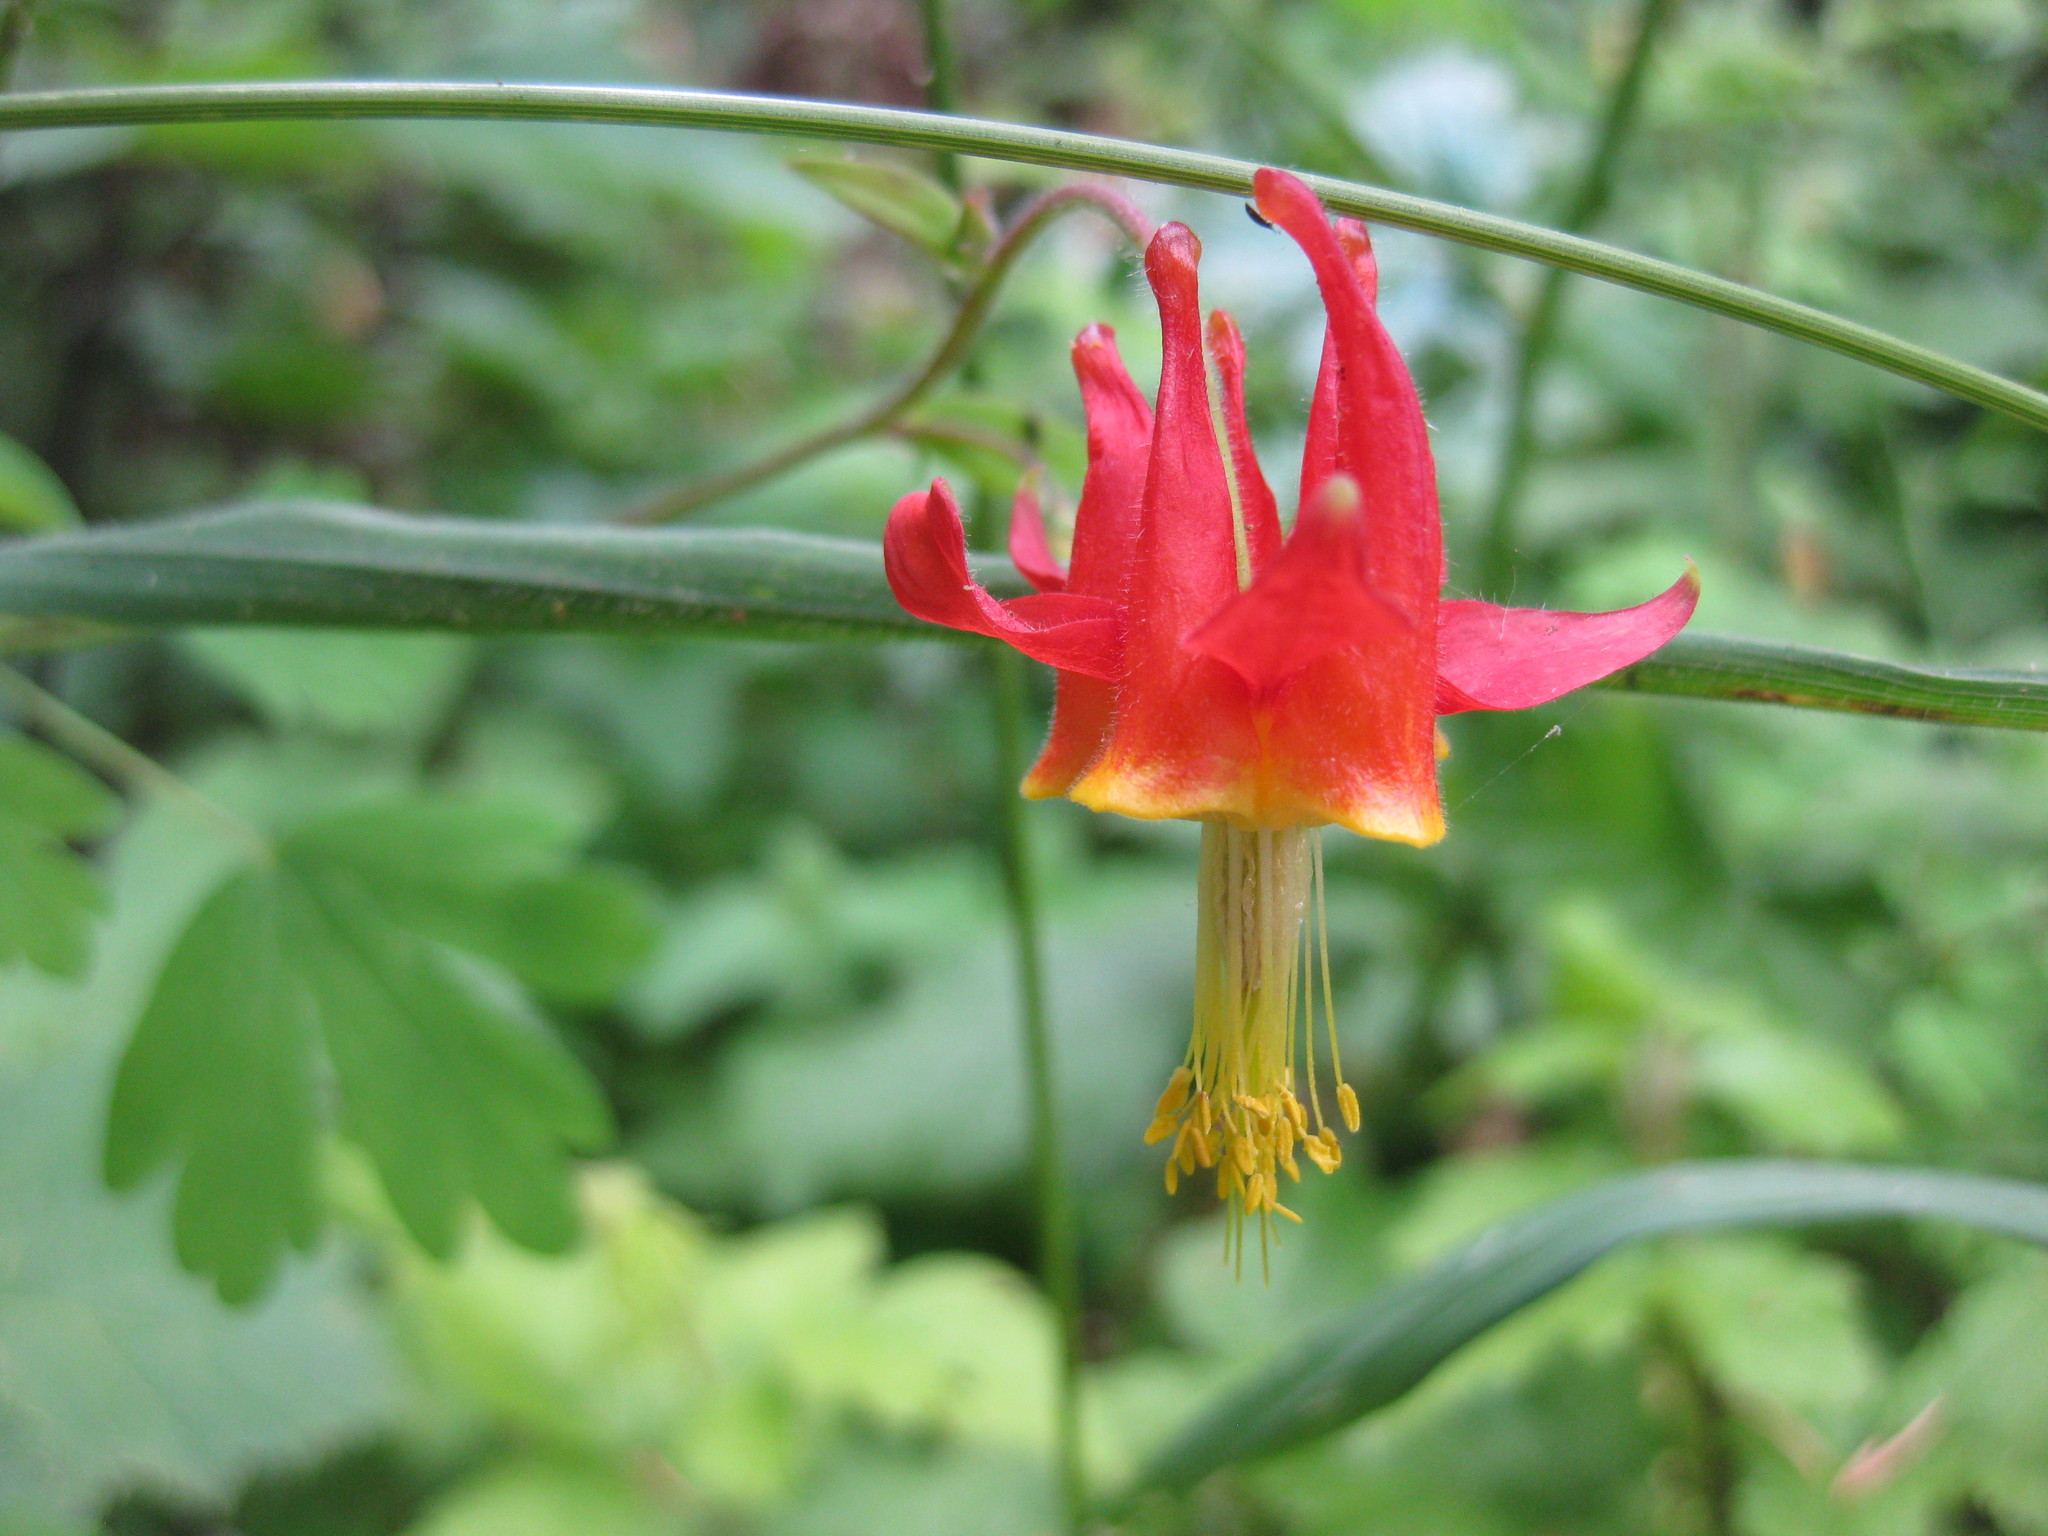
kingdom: Plantae
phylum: Tracheophyta
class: Magnoliopsida
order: Ranunculales
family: Ranunculaceae
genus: Aquilegia
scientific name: Aquilegia formosa
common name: Sitka columbine
